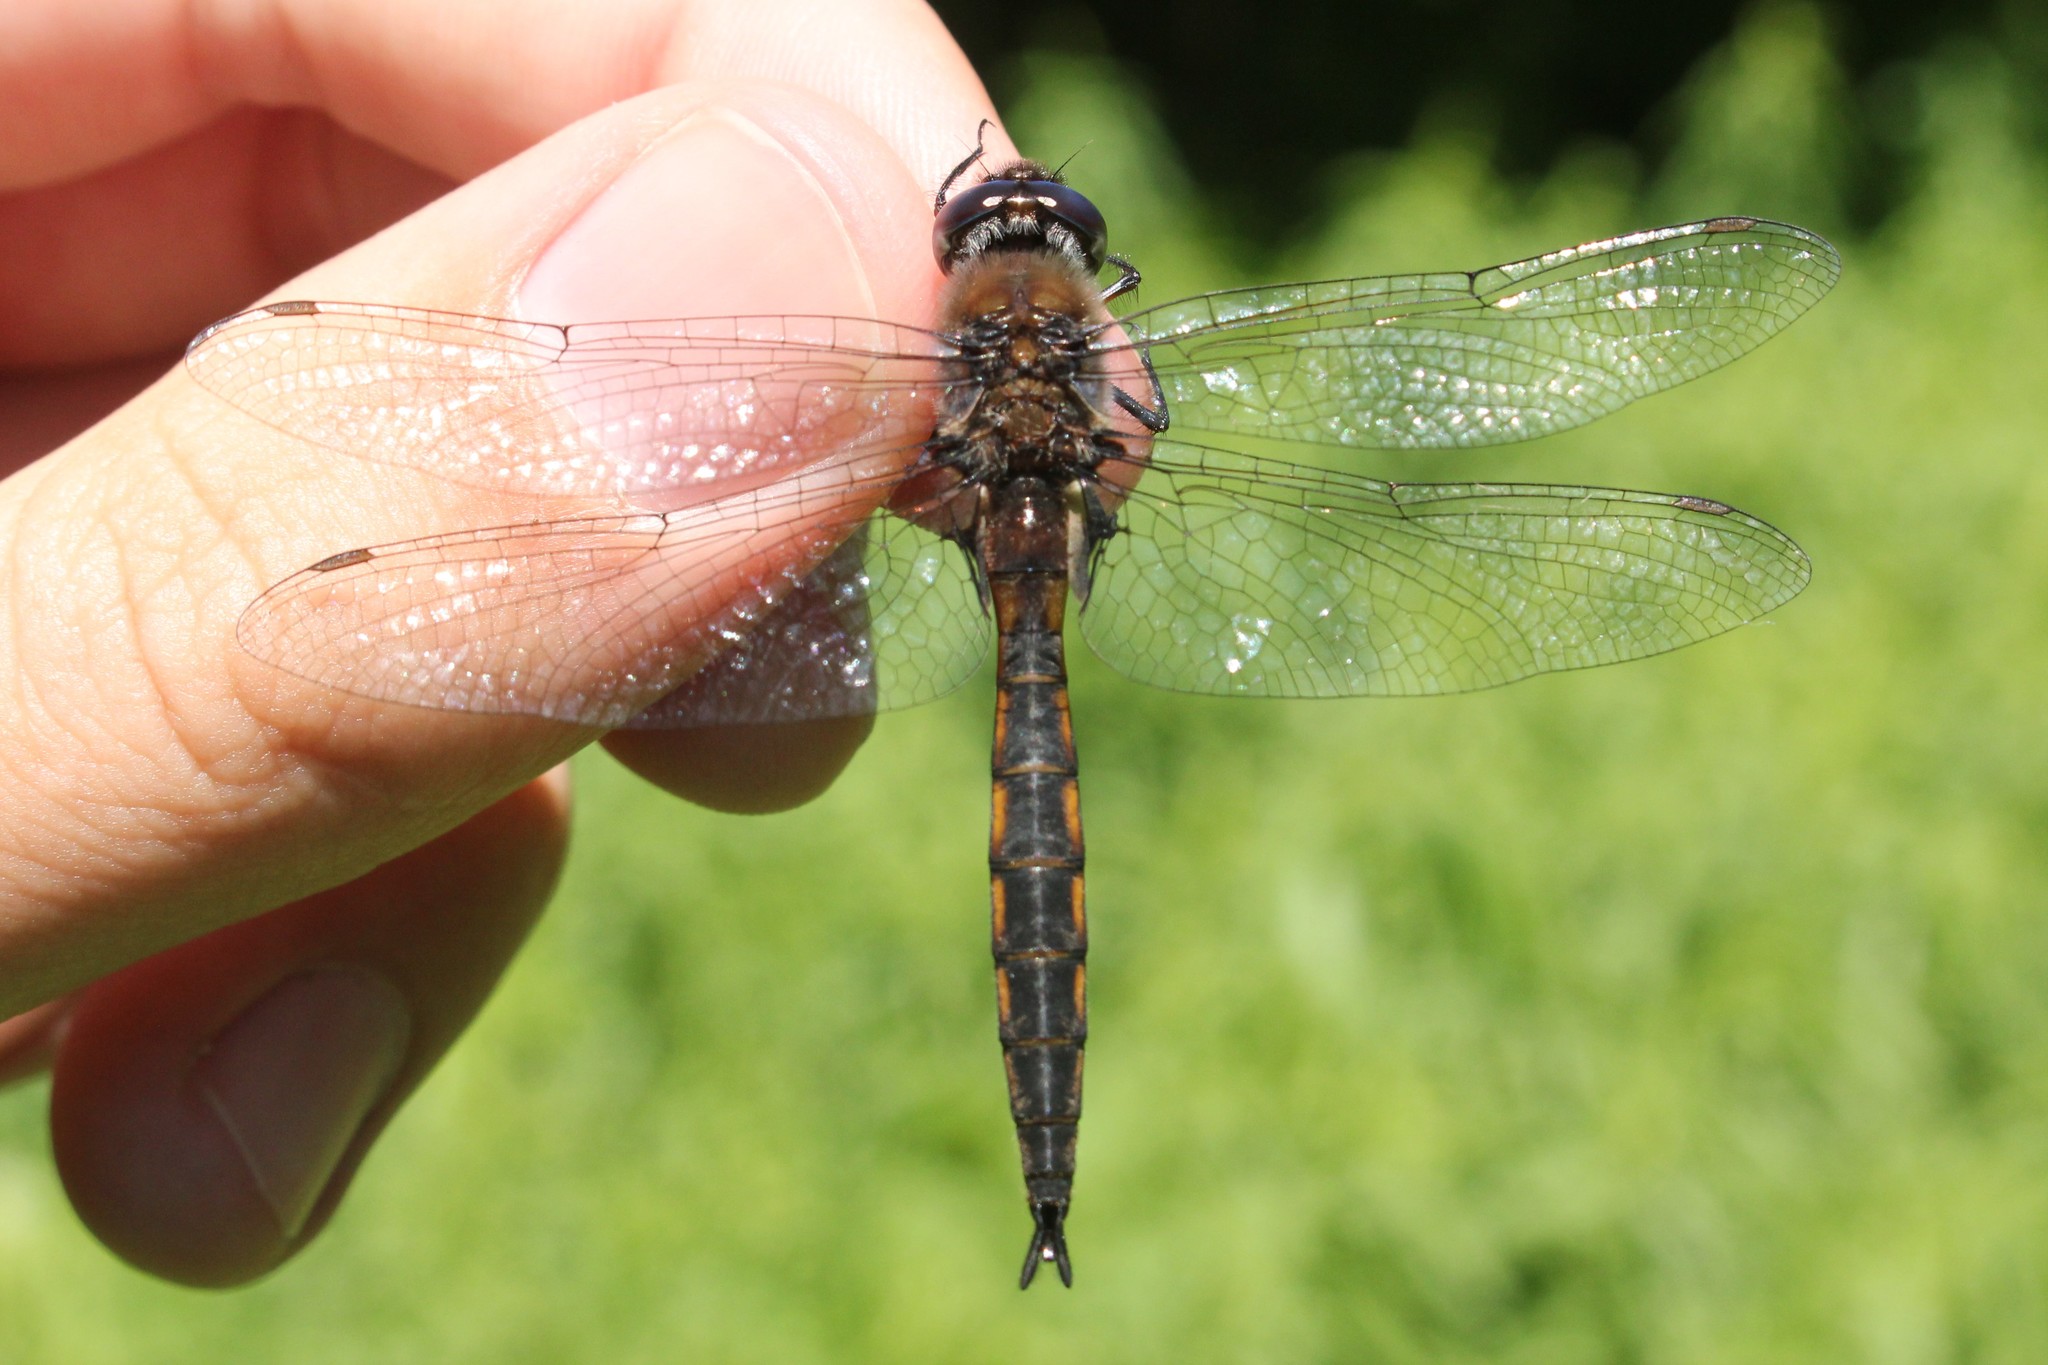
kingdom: Animalia
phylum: Arthropoda
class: Insecta
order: Odonata
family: Corduliidae
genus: Epitheca
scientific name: Epitheca cynosura
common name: Common baskettail
